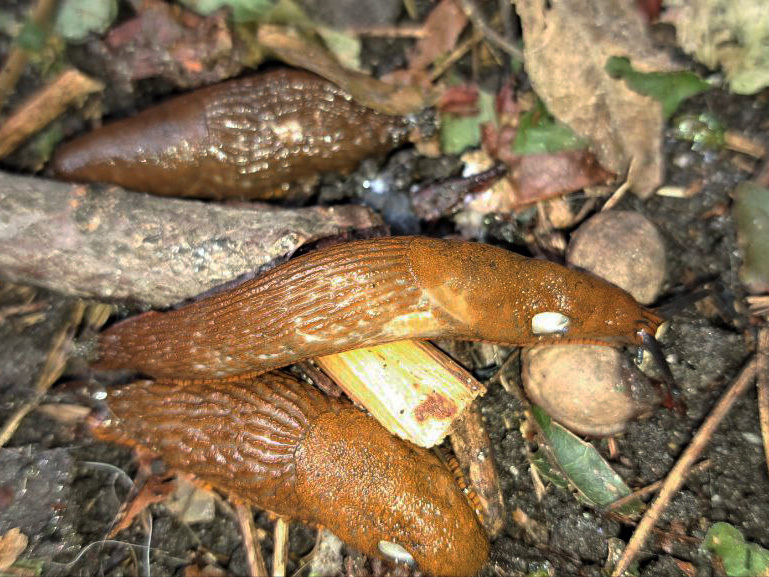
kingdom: Animalia
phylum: Mollusca
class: Gastropoda
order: Stylommatophora
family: Arionidae
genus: Arion
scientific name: Arion vulgaris
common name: Lusitanian slug
